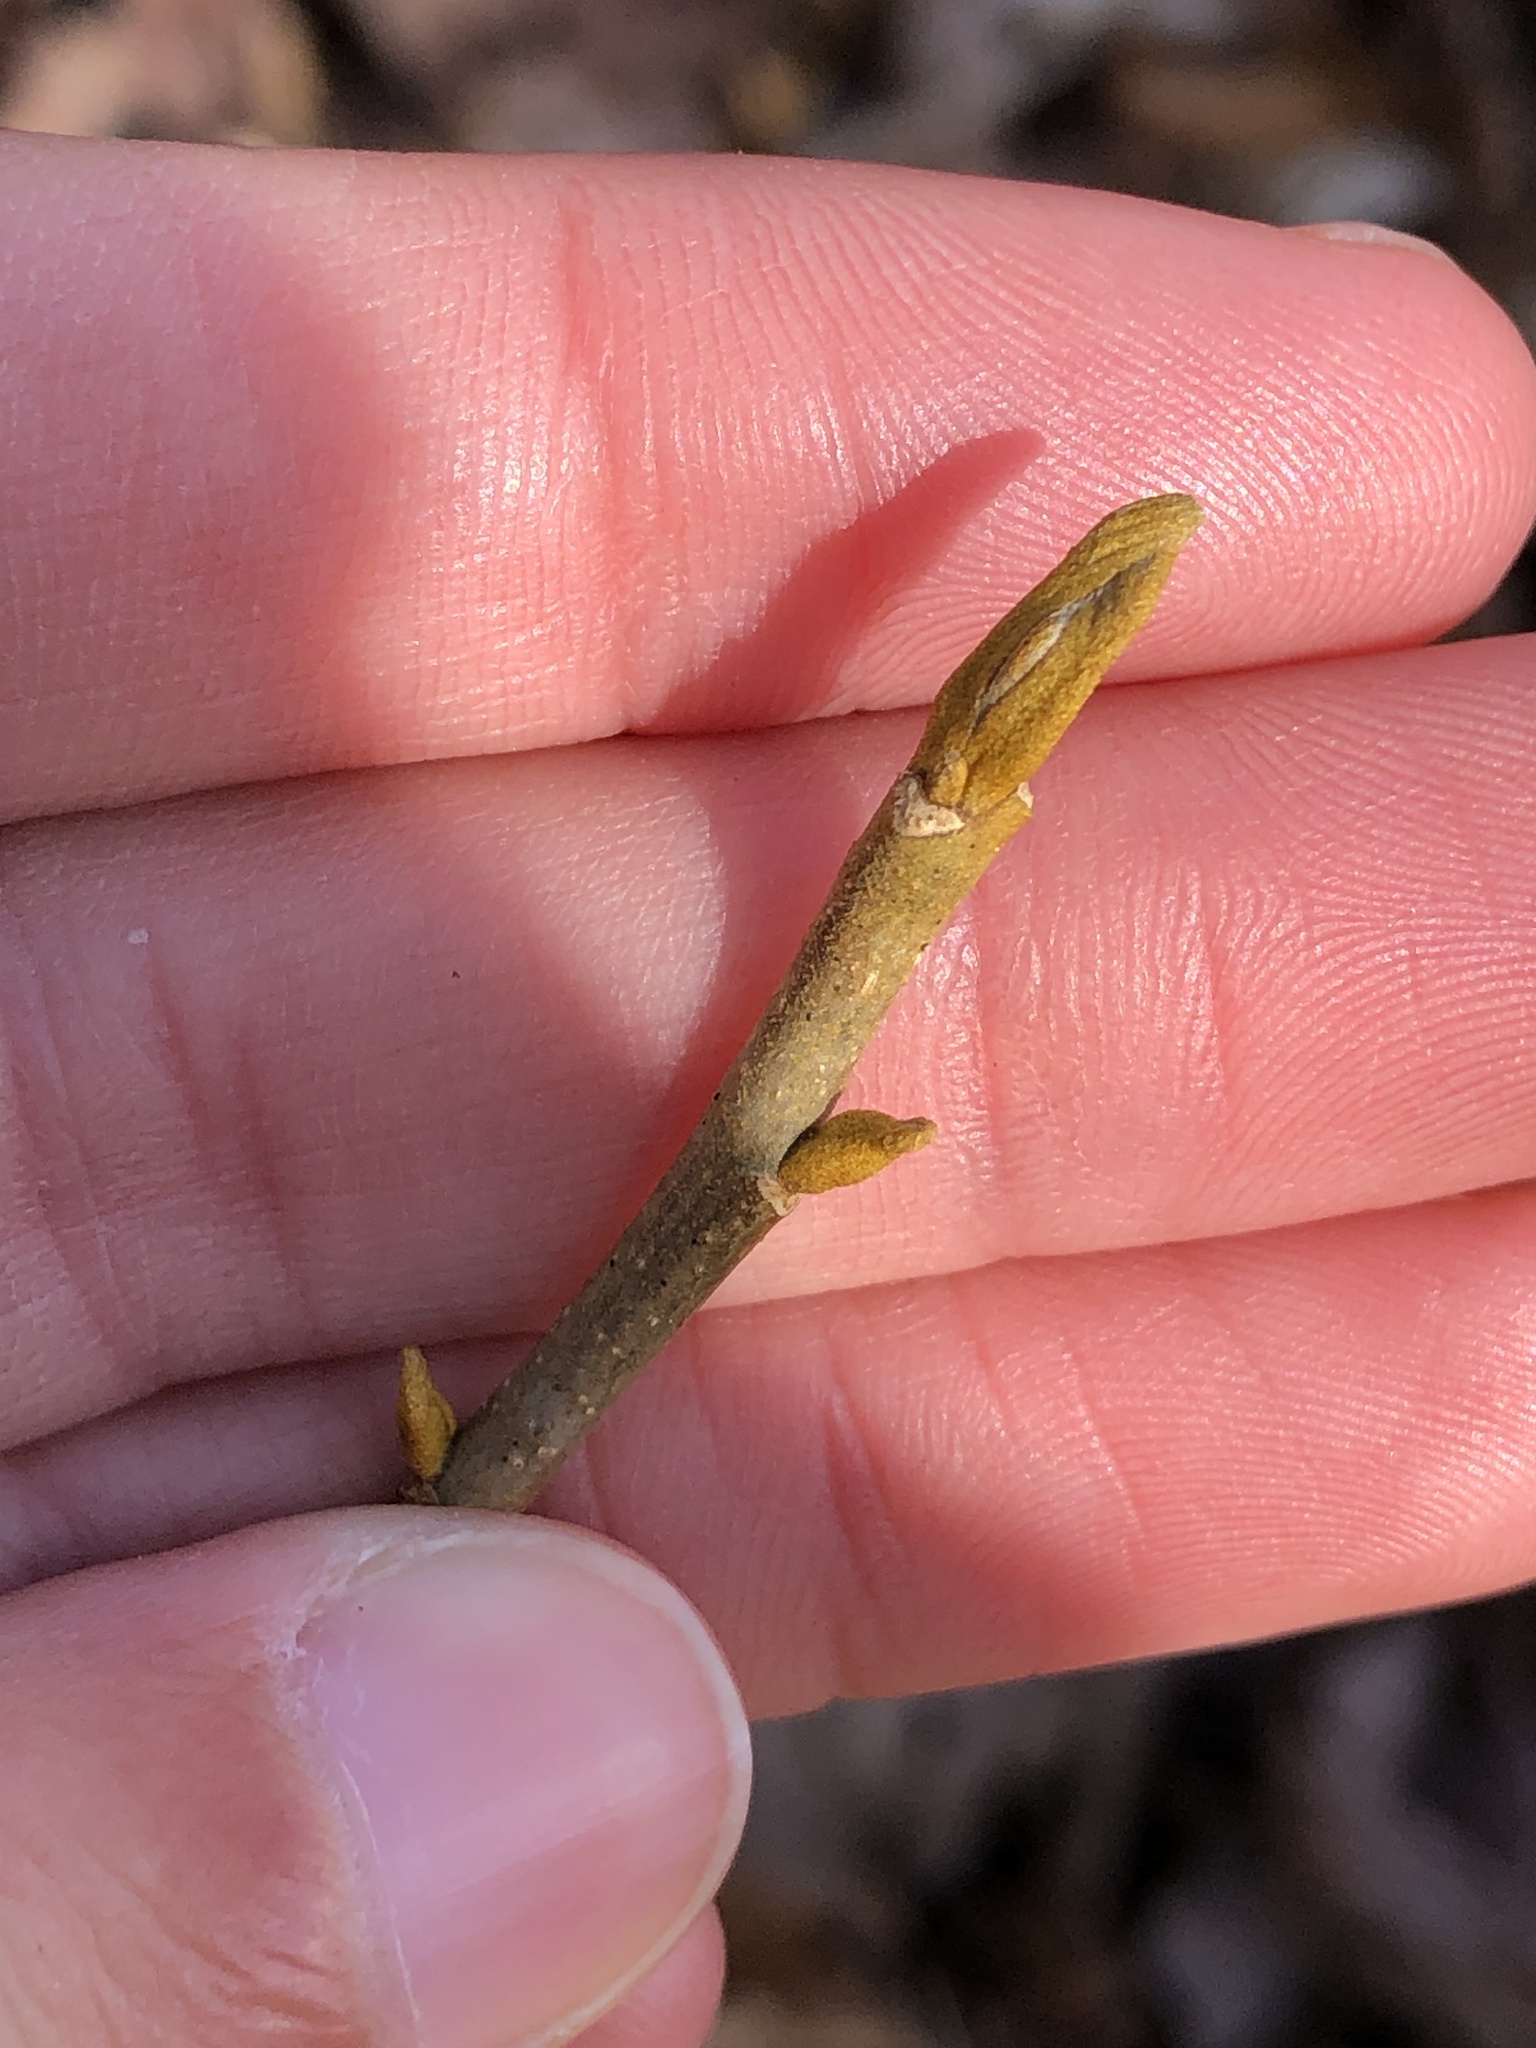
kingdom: Plantae
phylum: Tracheophyta
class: Magnoliopsida
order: Fagales
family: Juglandaceae
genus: Carya
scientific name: Carya cordiformis
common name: Bitternut hickory
